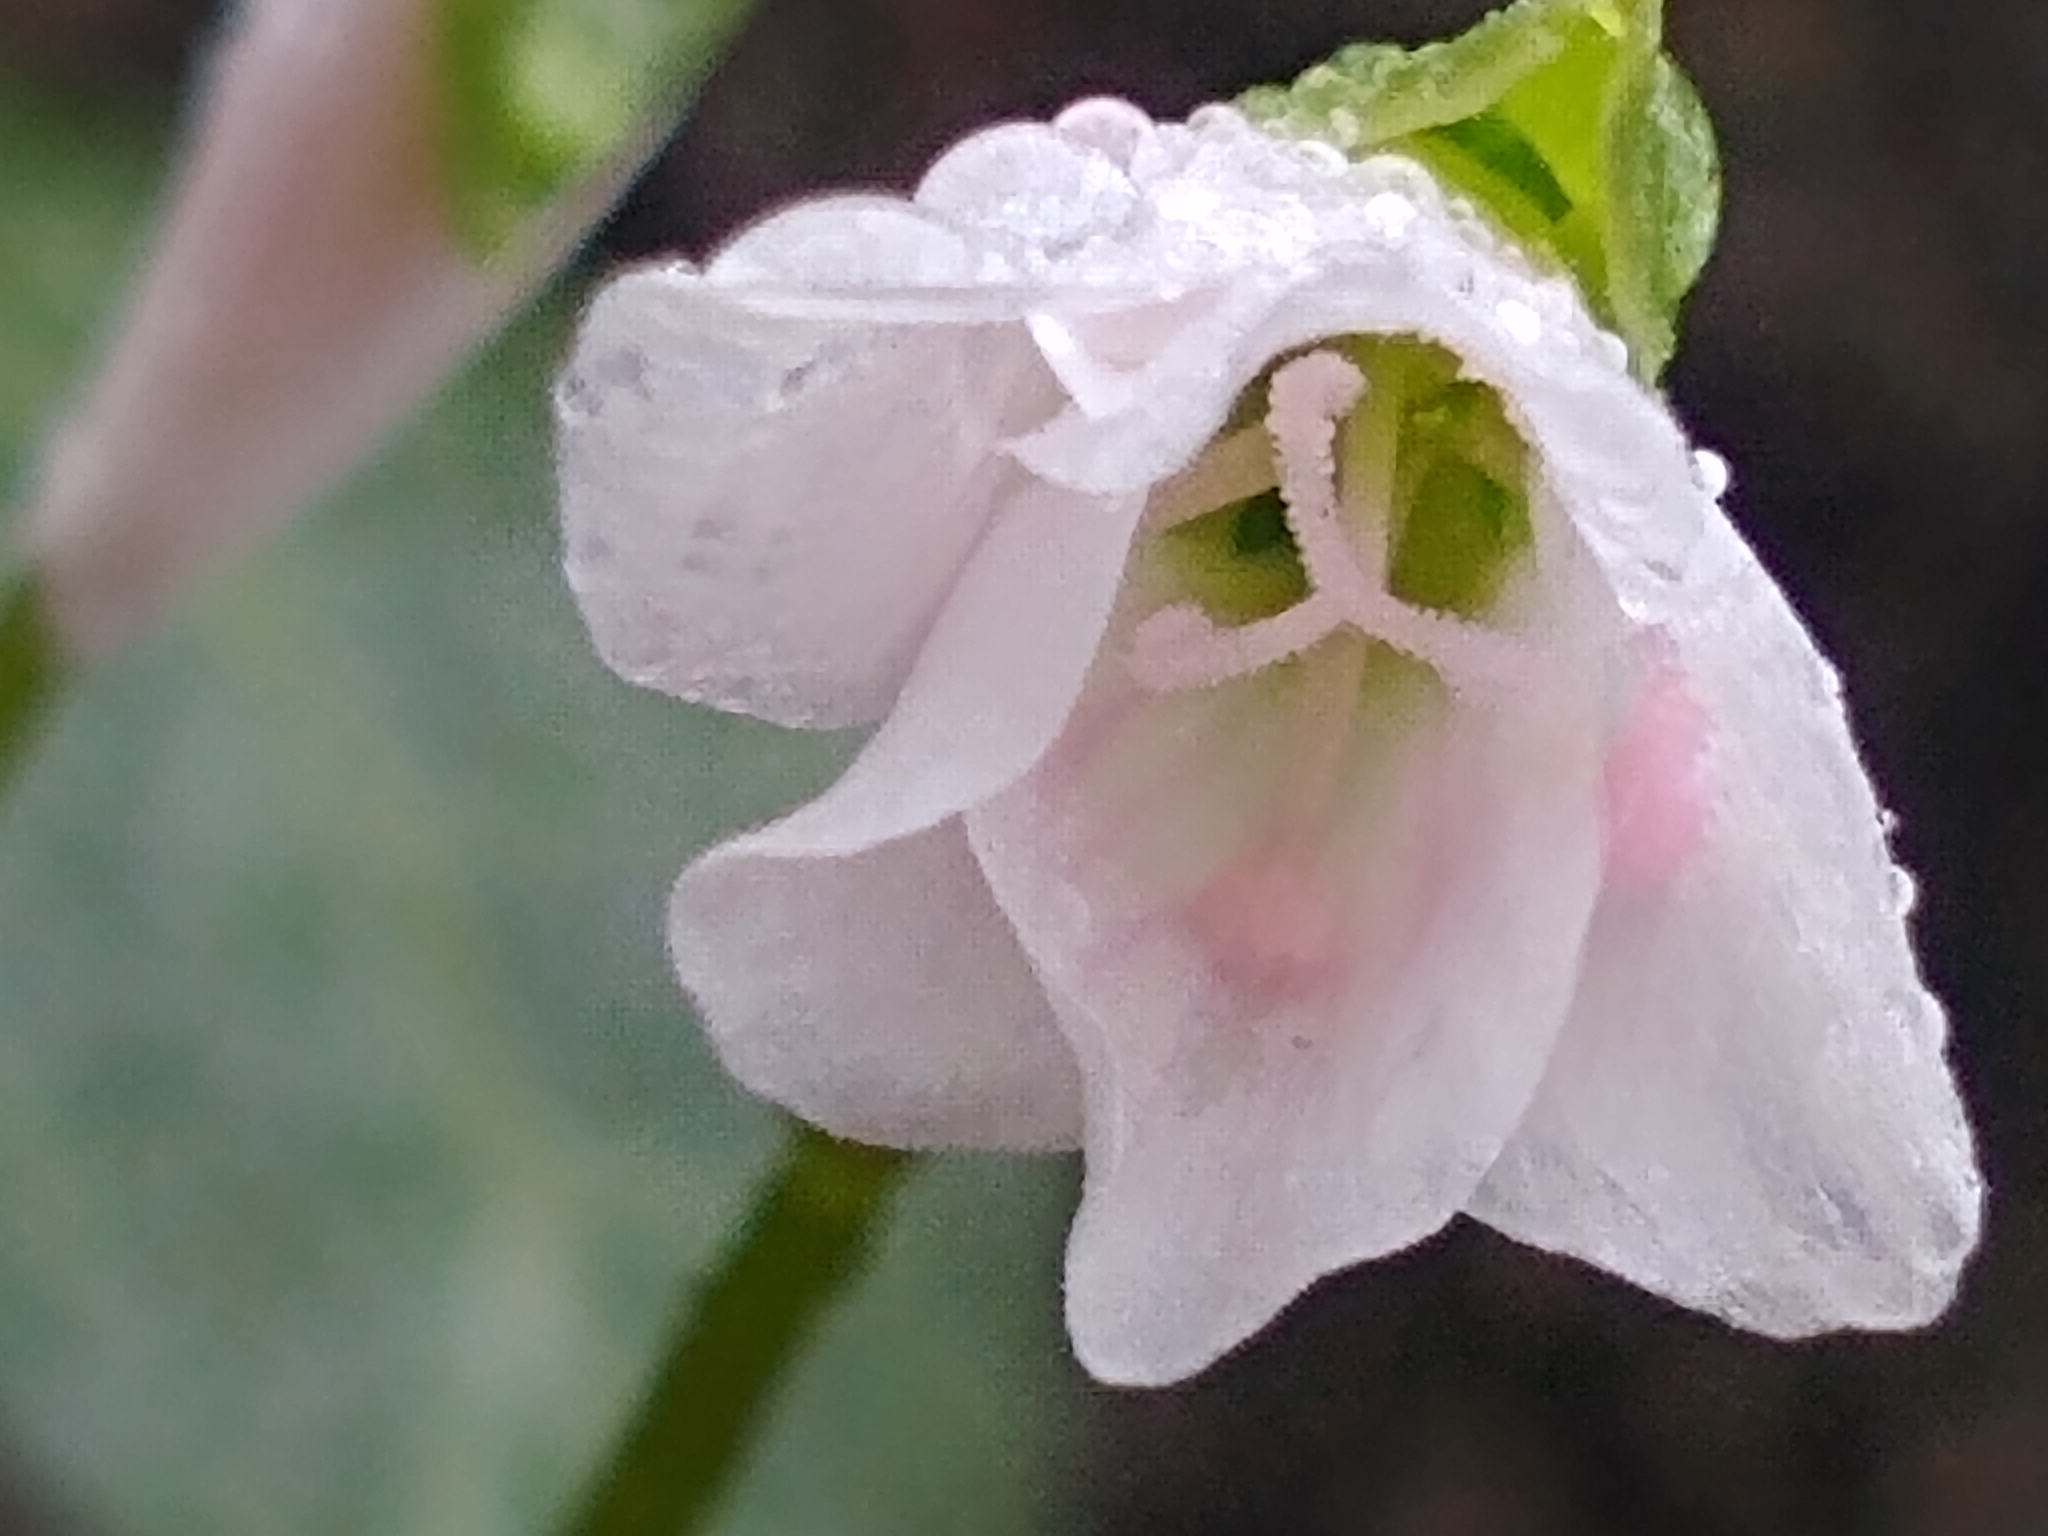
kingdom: Plantae
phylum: Tracheophyta
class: Magnoliopsida
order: Caryophyllales
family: Montiaceae
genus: Claytonia
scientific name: Claytonia virginica
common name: Virginia springbeauty
